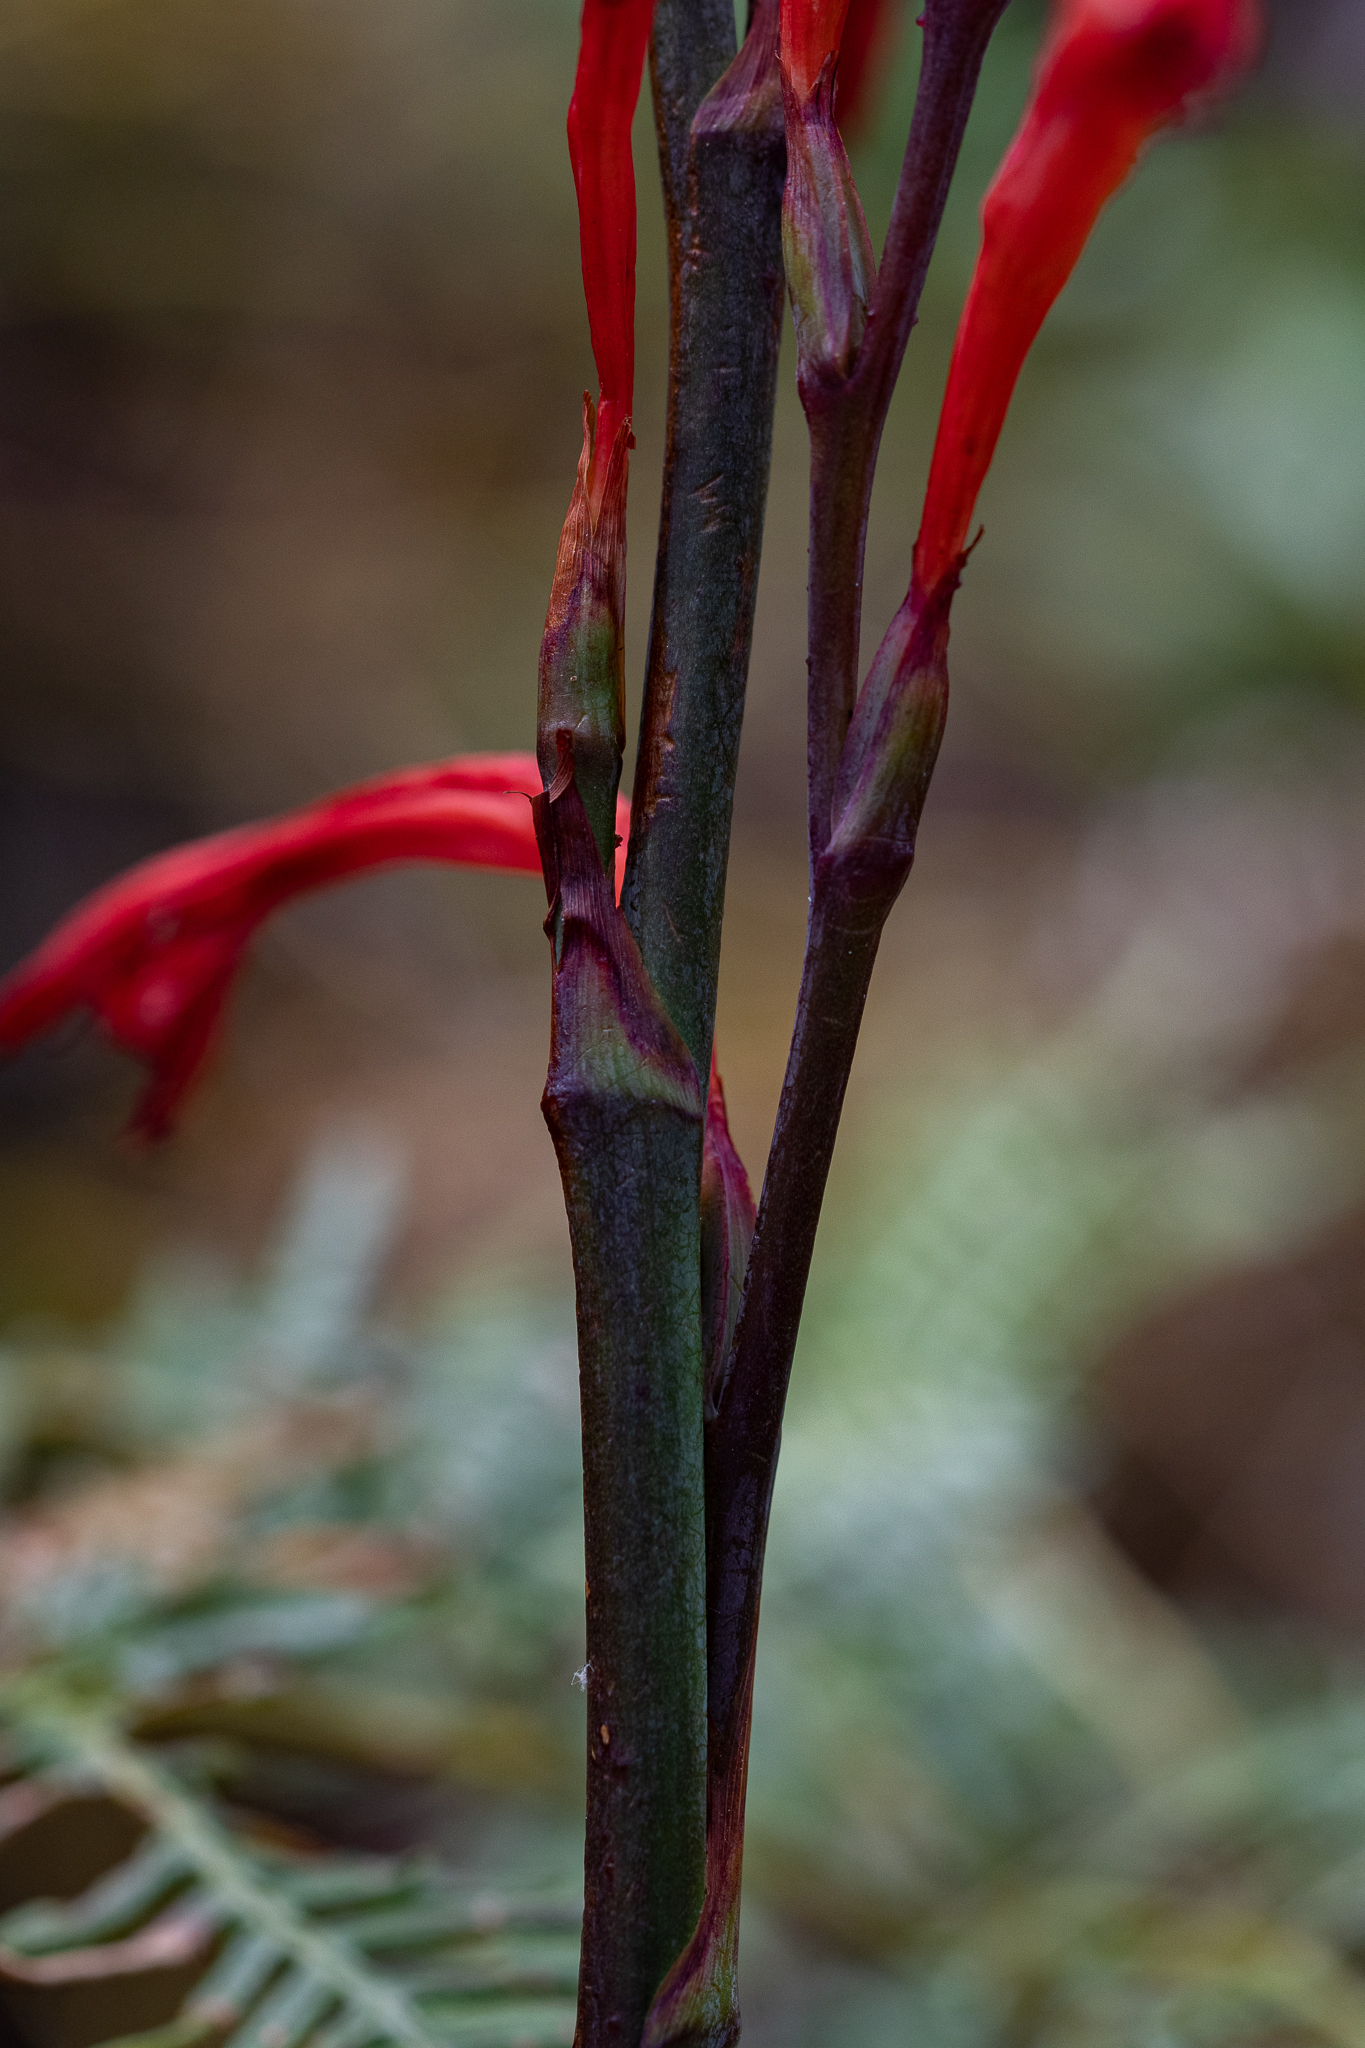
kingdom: Plantae
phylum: Tracheophyta
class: Liliopsida
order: Asparagales
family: Iridaceae
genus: Watsonia
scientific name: Watsonia angusta
